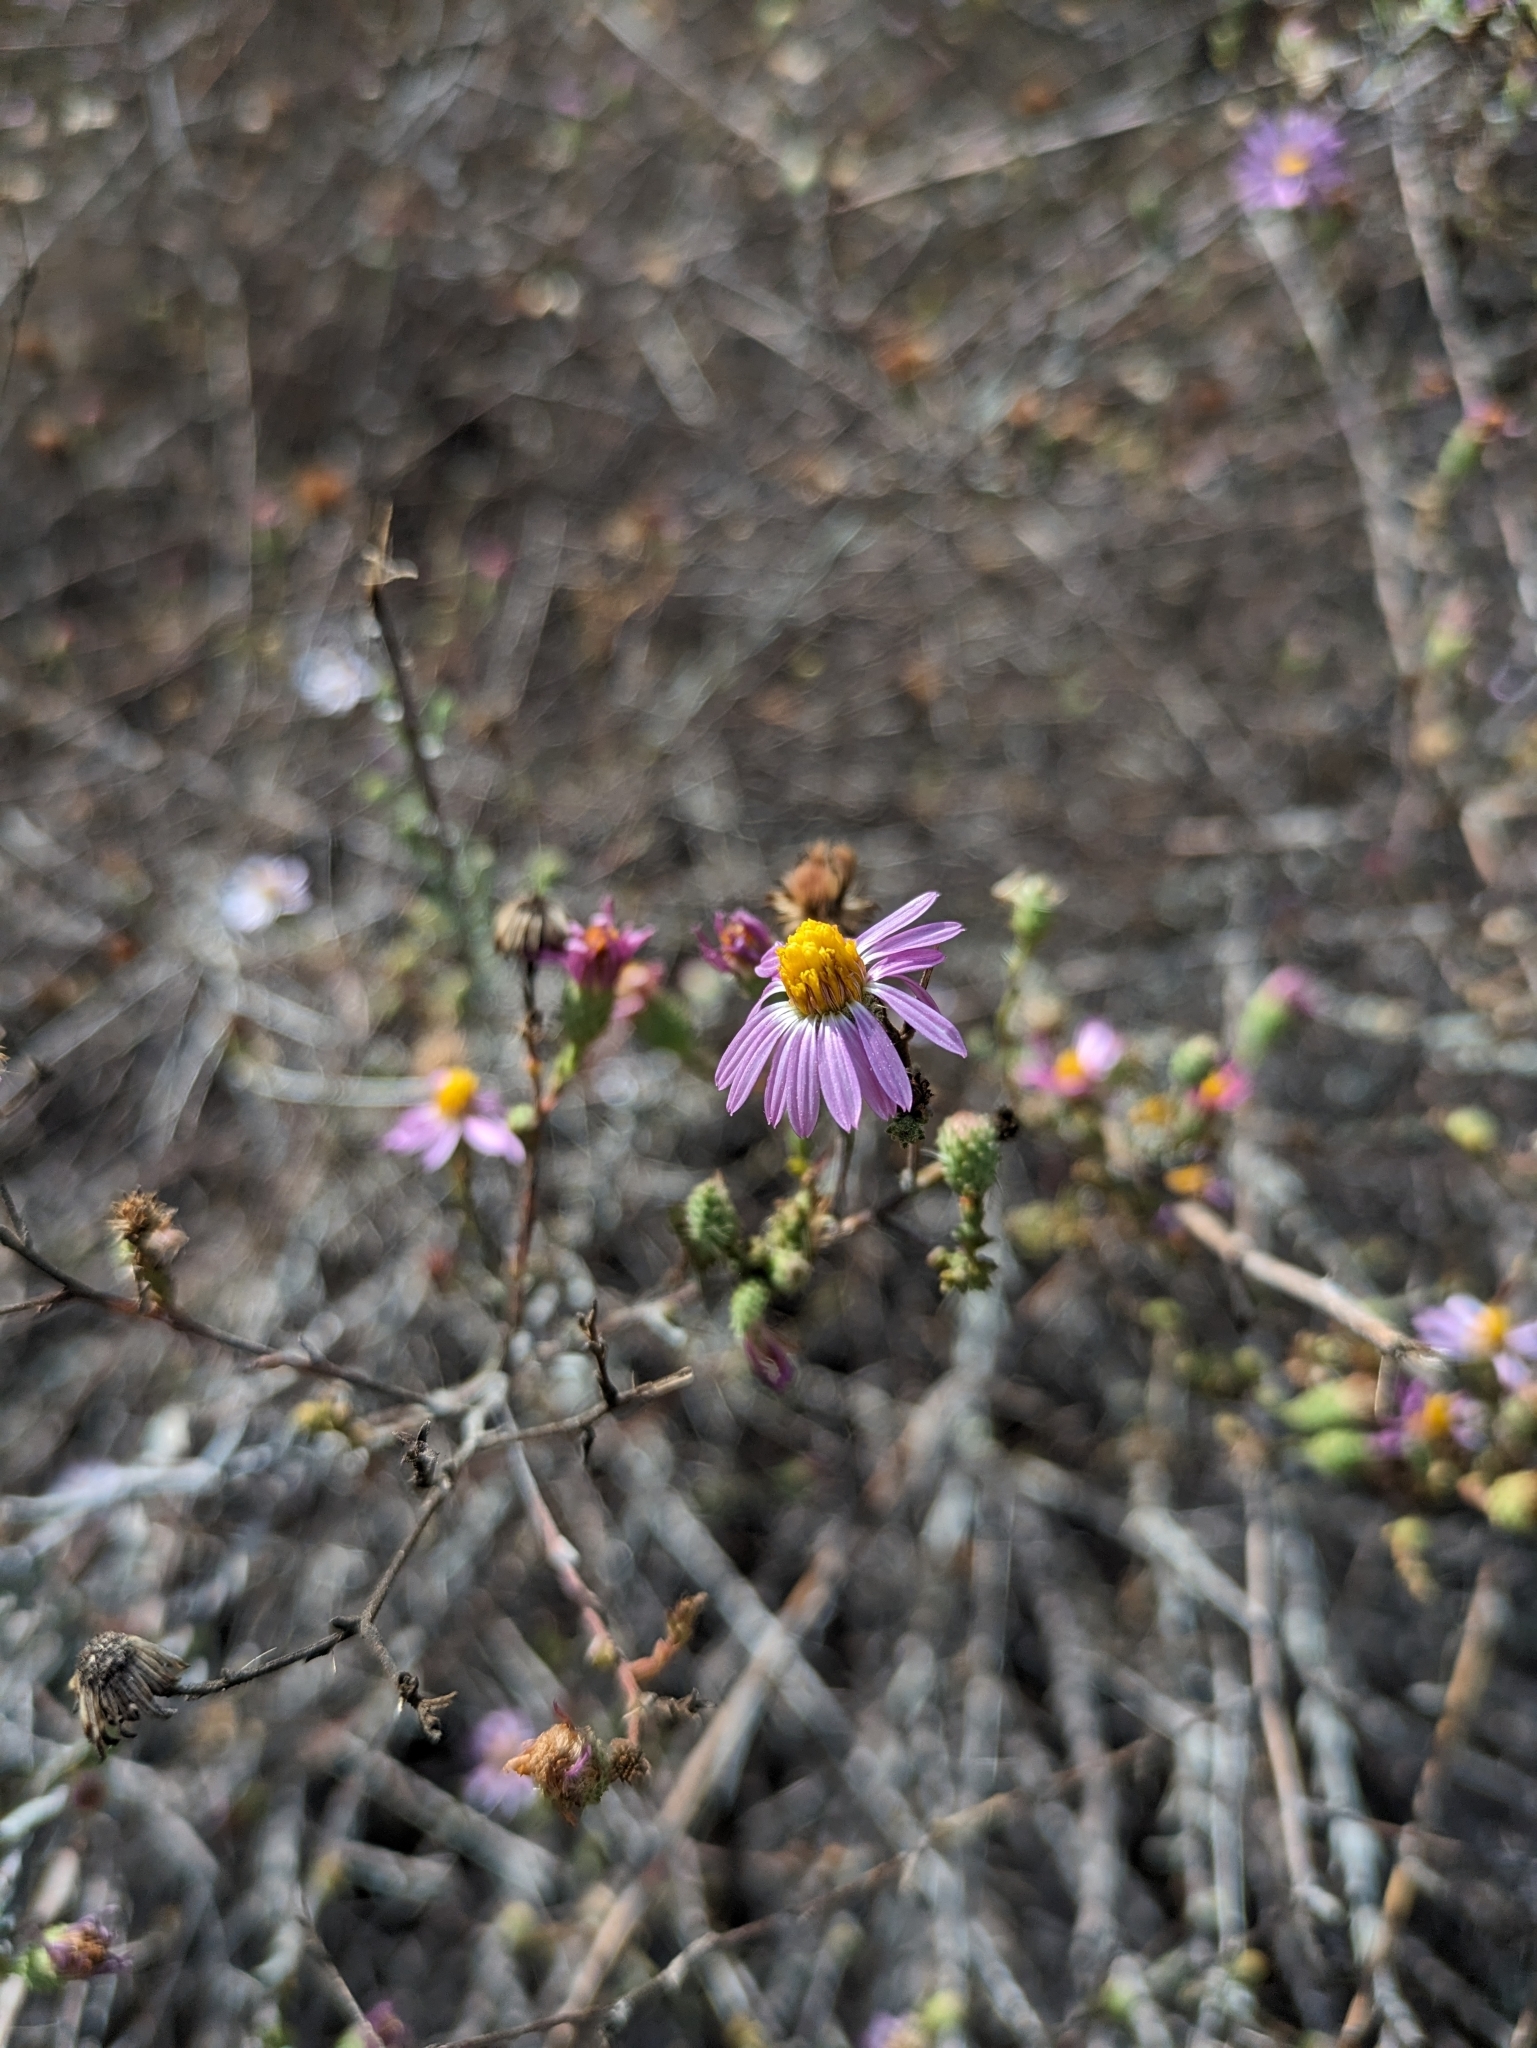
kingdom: Plantae
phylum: Tracheophyta
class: Magnoliopsida
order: Asterales
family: Asteraceae
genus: Corethrogyne
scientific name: Corethrogyne filaginifolia
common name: Sand-aster
